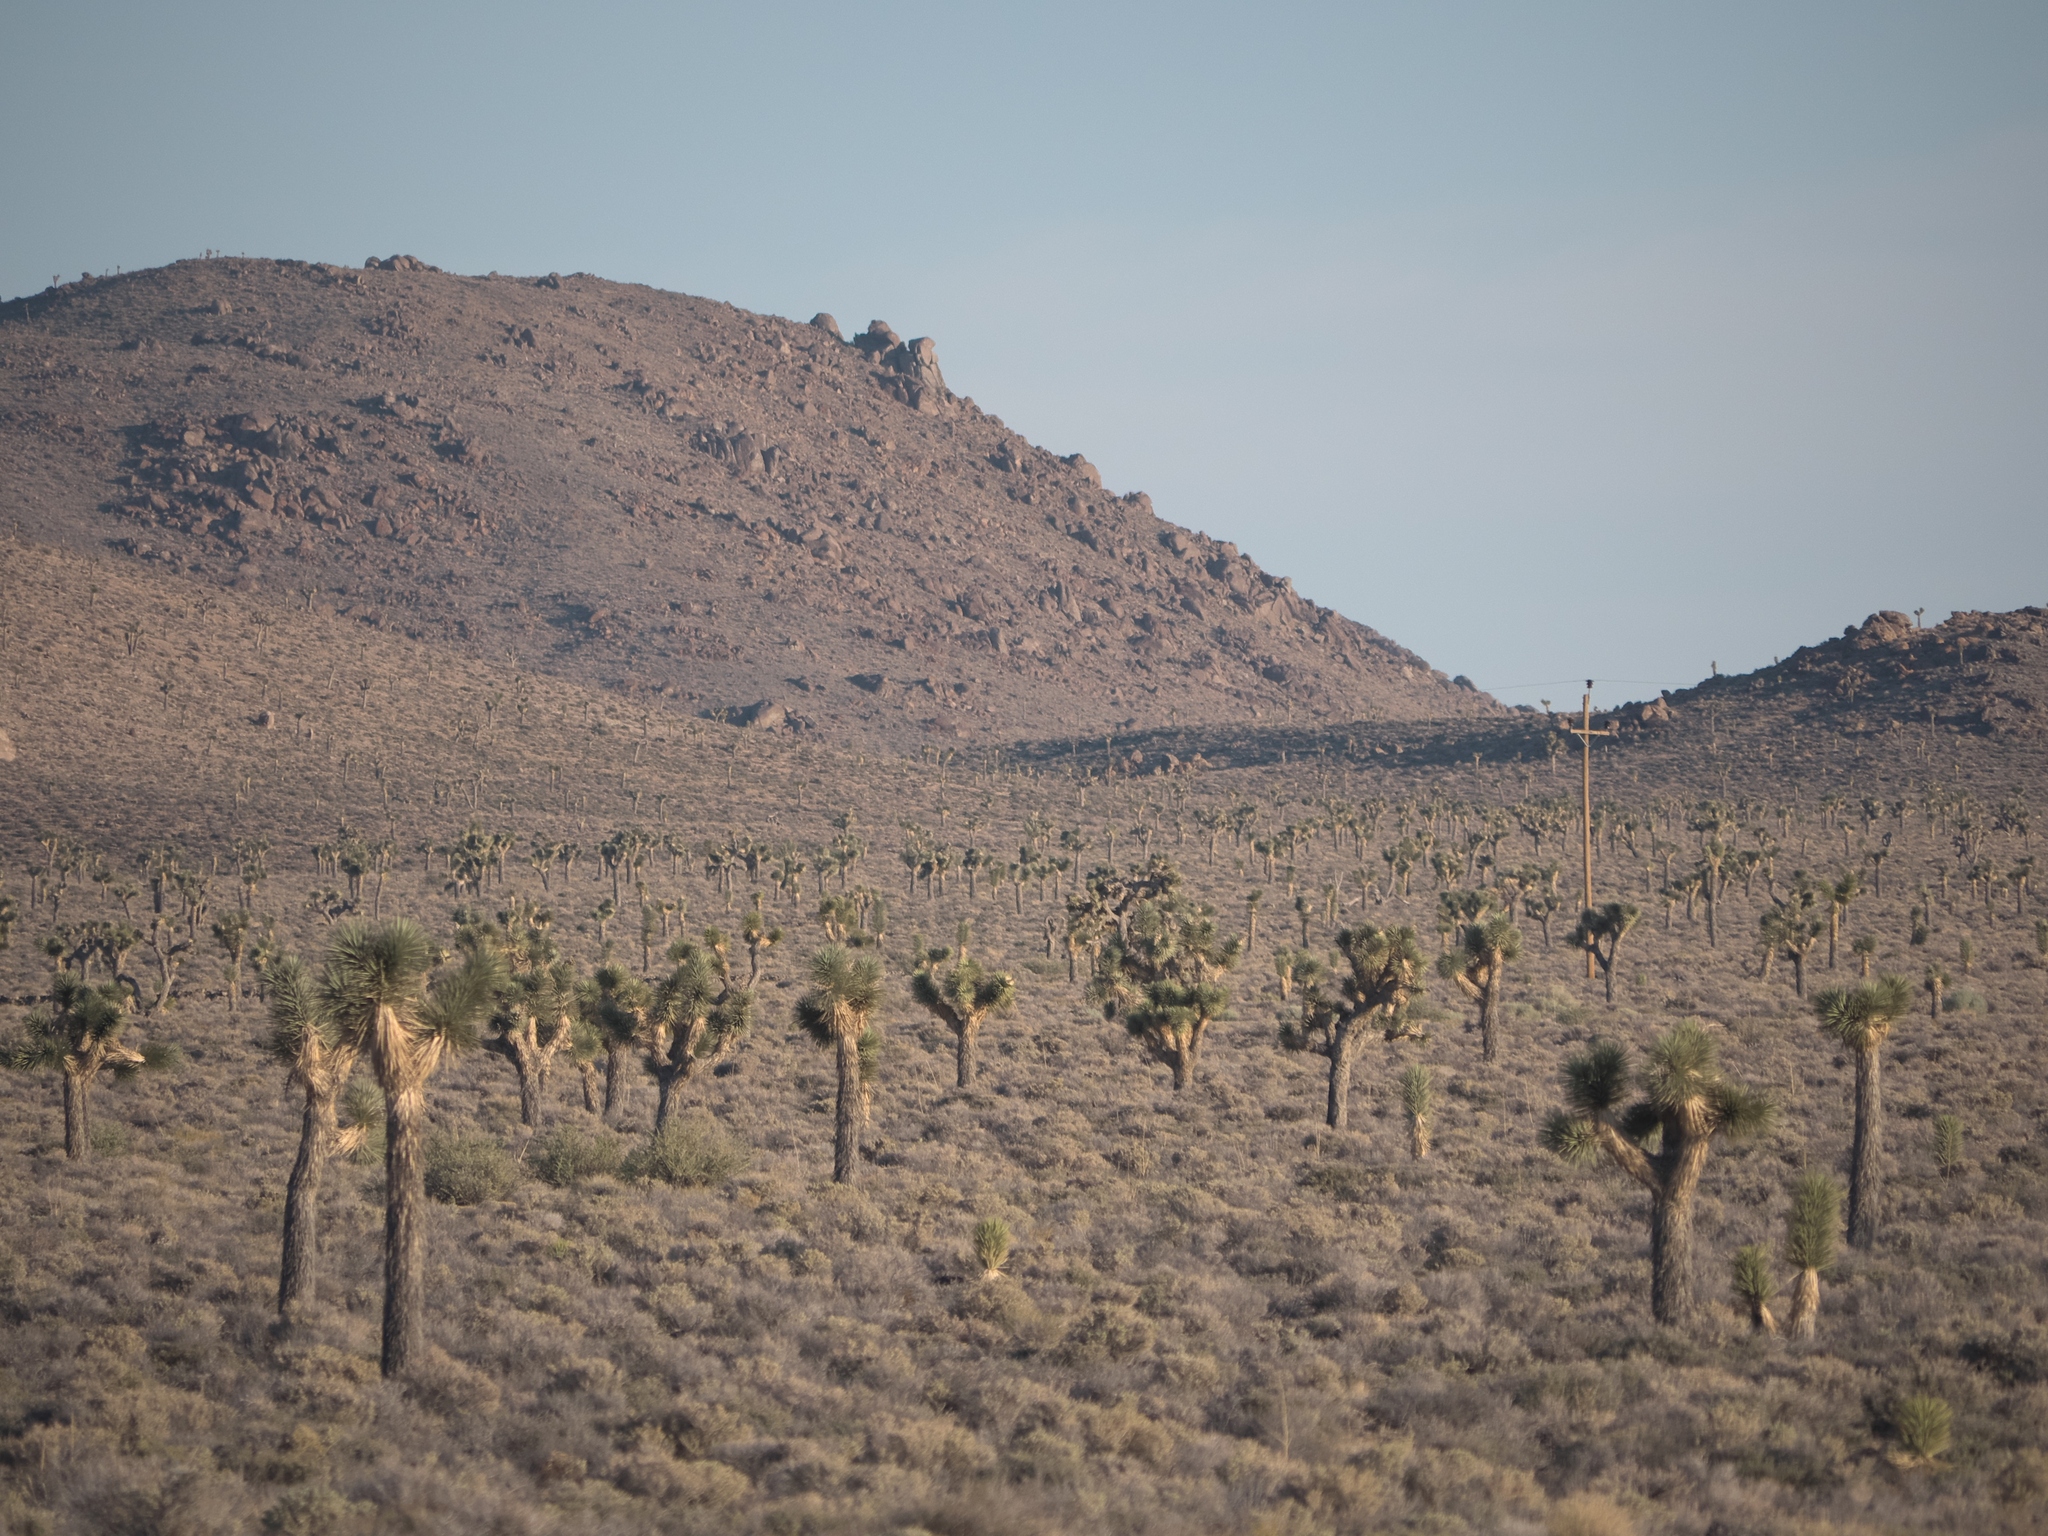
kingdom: Plantae
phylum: Tracheophyta
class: Liliopsida
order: Asparagales
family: Asparagaceae
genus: Yucca
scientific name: Yucca brevifolia
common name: Joshua tree
